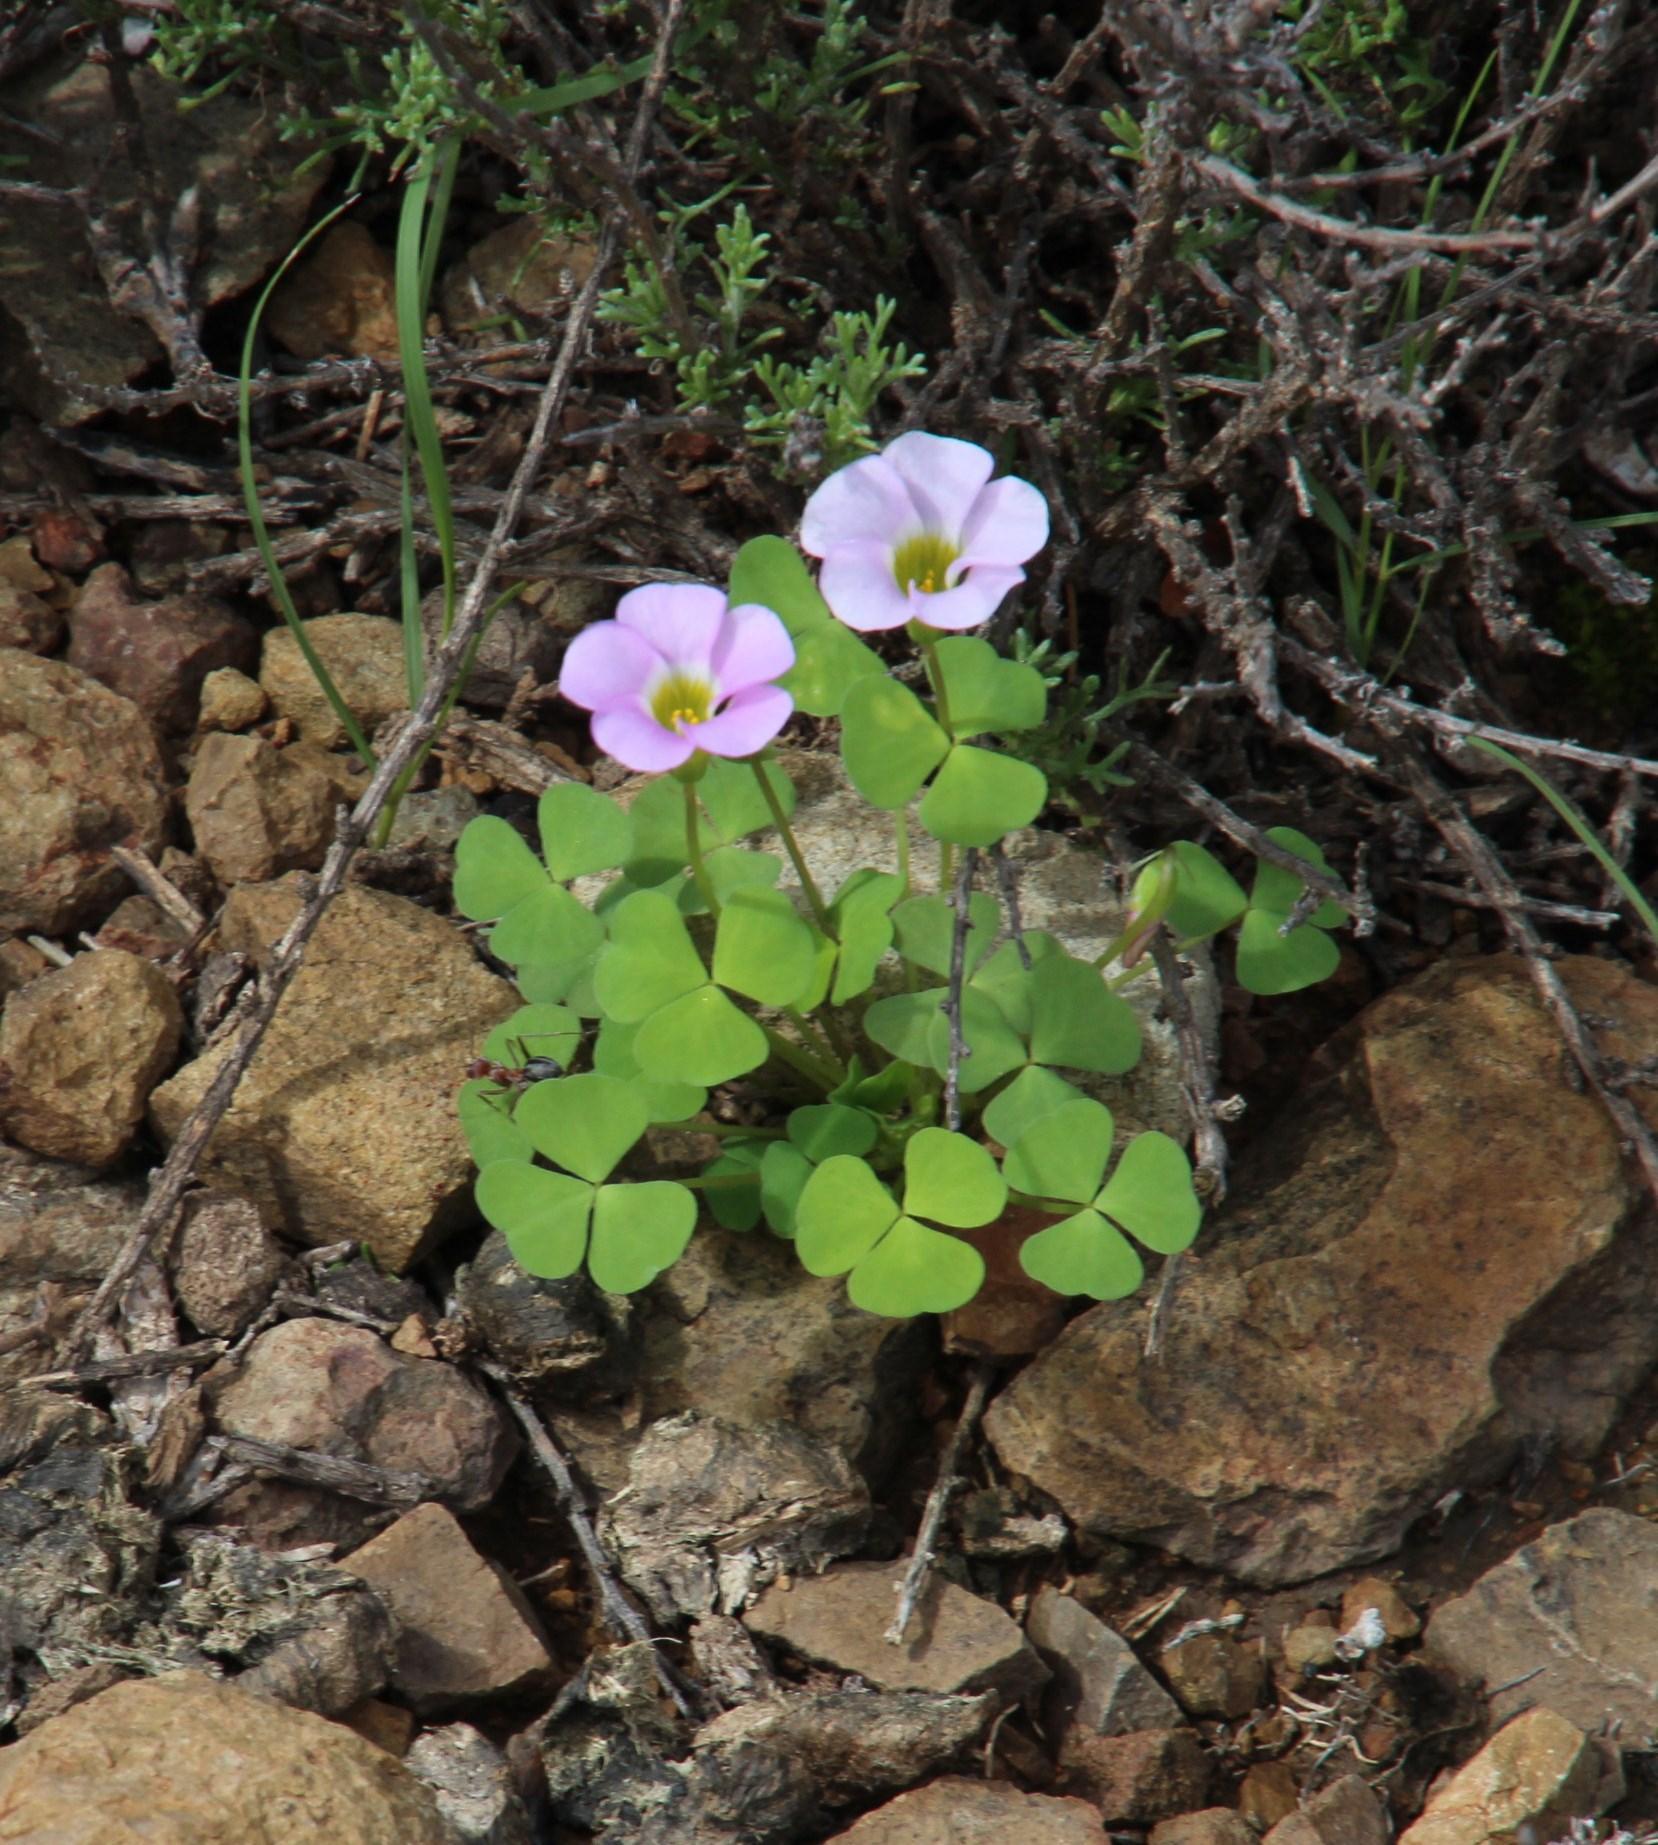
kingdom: Plantae
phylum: Tracheophyta
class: Magnoliopsida
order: Oxalidales
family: Oxalidaceae
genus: Oxalis
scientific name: Oxalis obliquifolia
